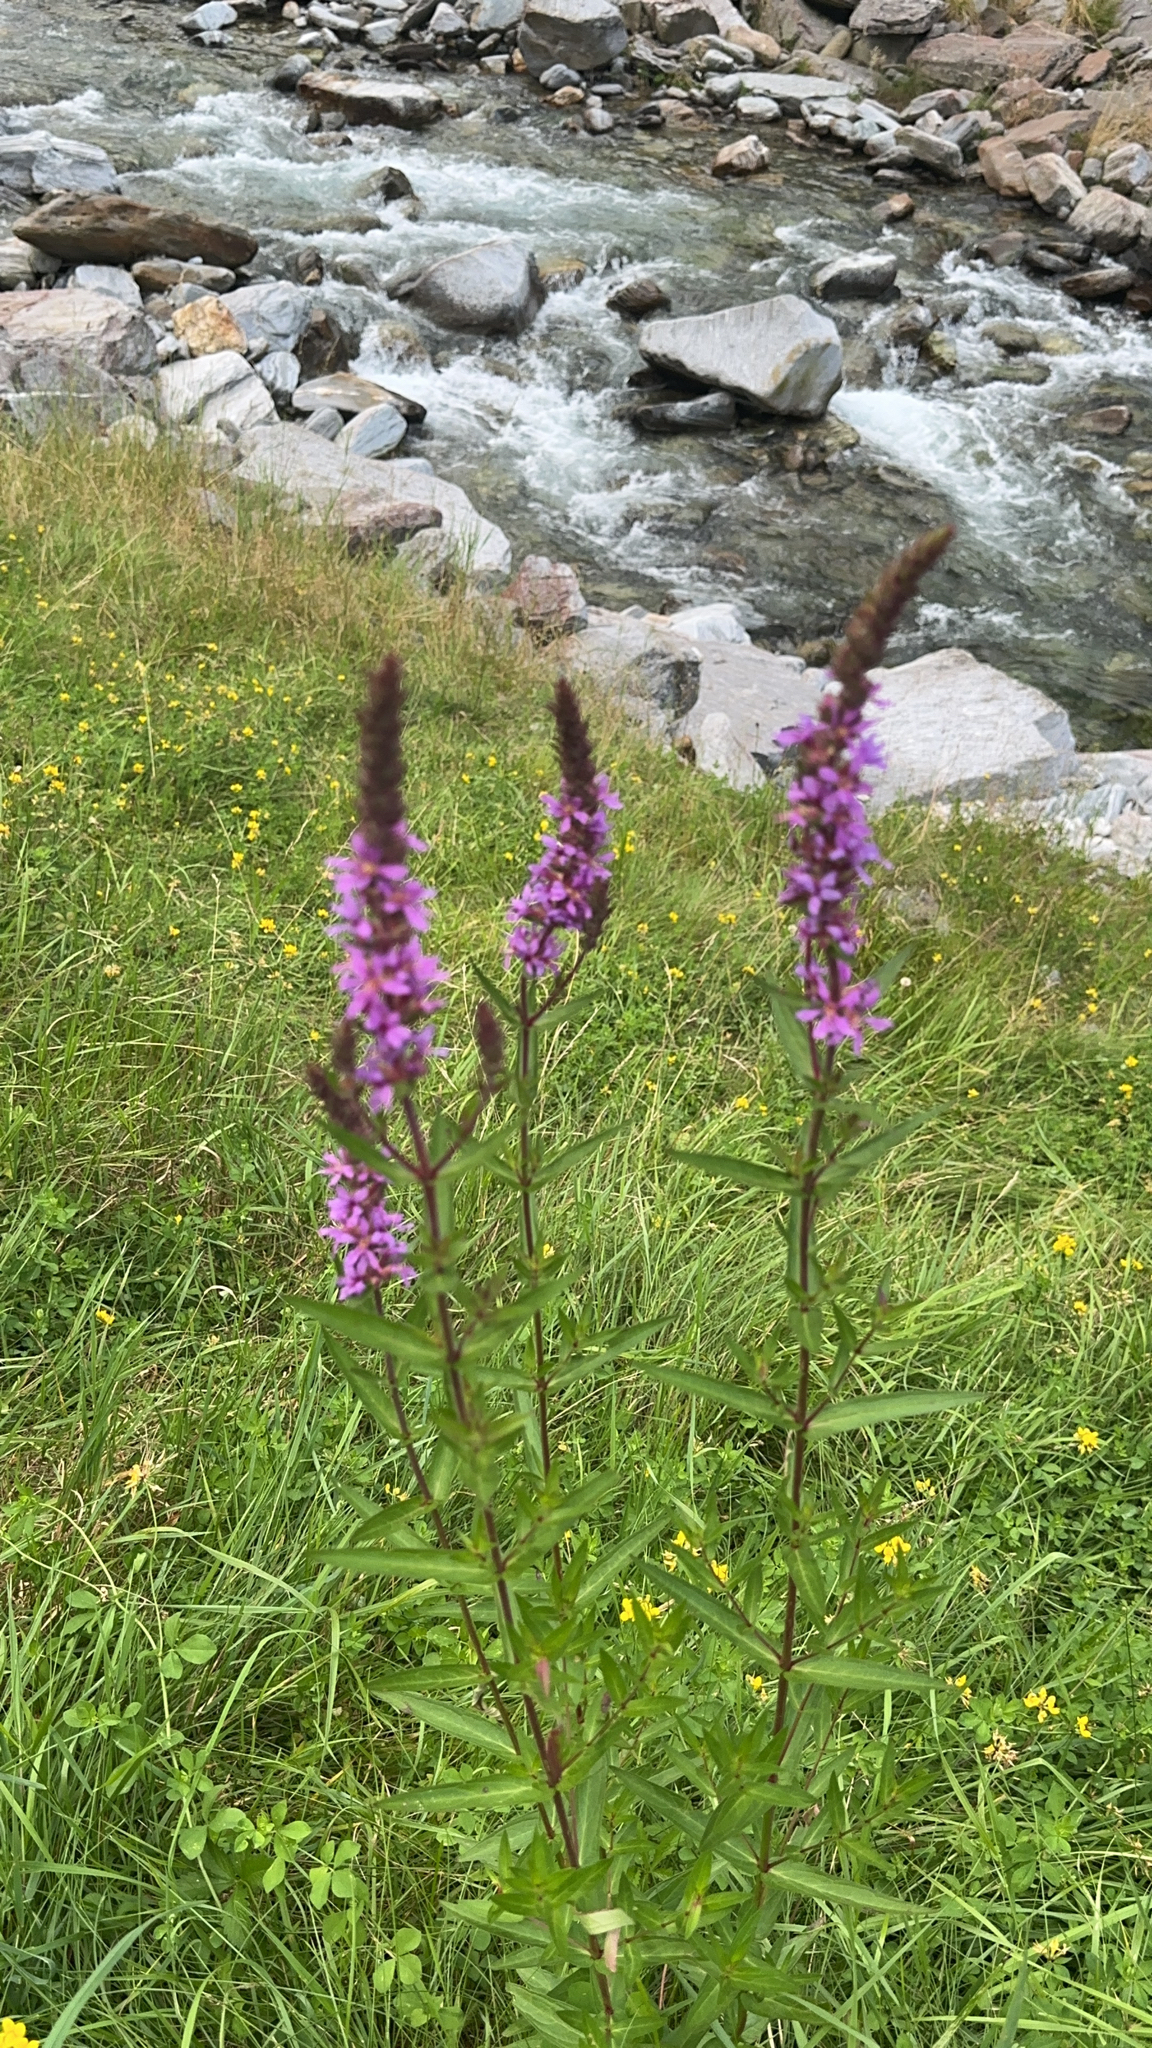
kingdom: Plantae
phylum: Tracheophyta
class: Magnoliopsida
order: Myrtales
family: Lythraceae
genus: Lythrum
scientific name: Lythrum salicaria
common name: Purple loosestrife
